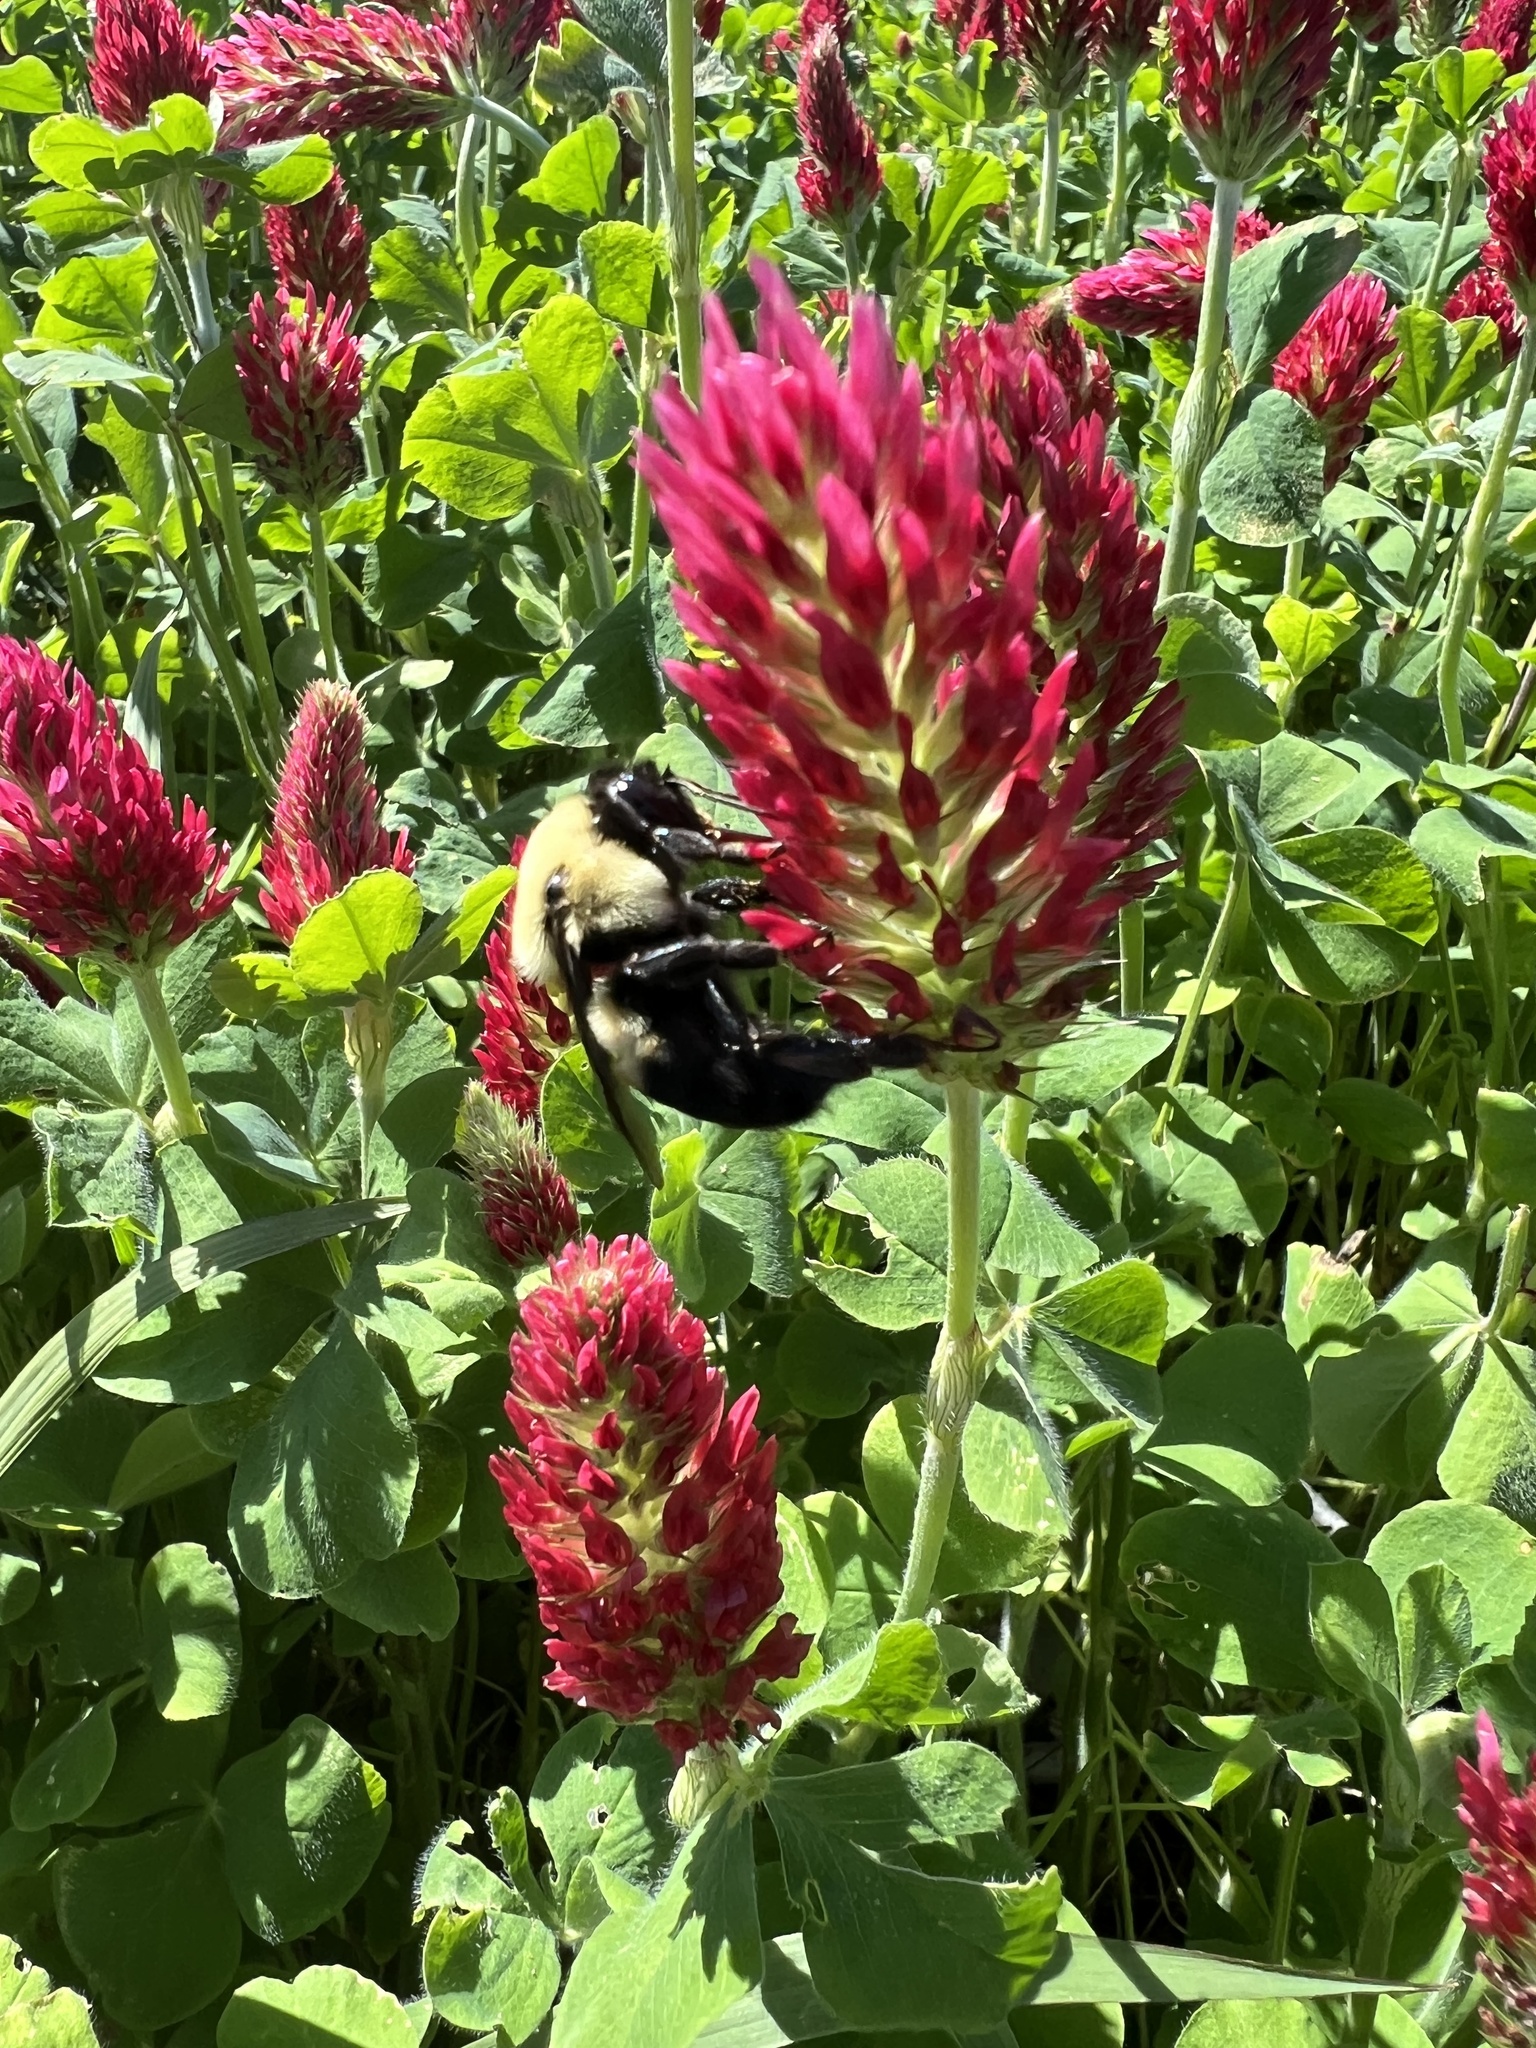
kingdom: Animalia
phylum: Arthropoda
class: Insecta
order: Hymenoptera
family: Apidae
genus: Bombus
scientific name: Bombus griseocollis
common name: Brown-belted bumble bee
